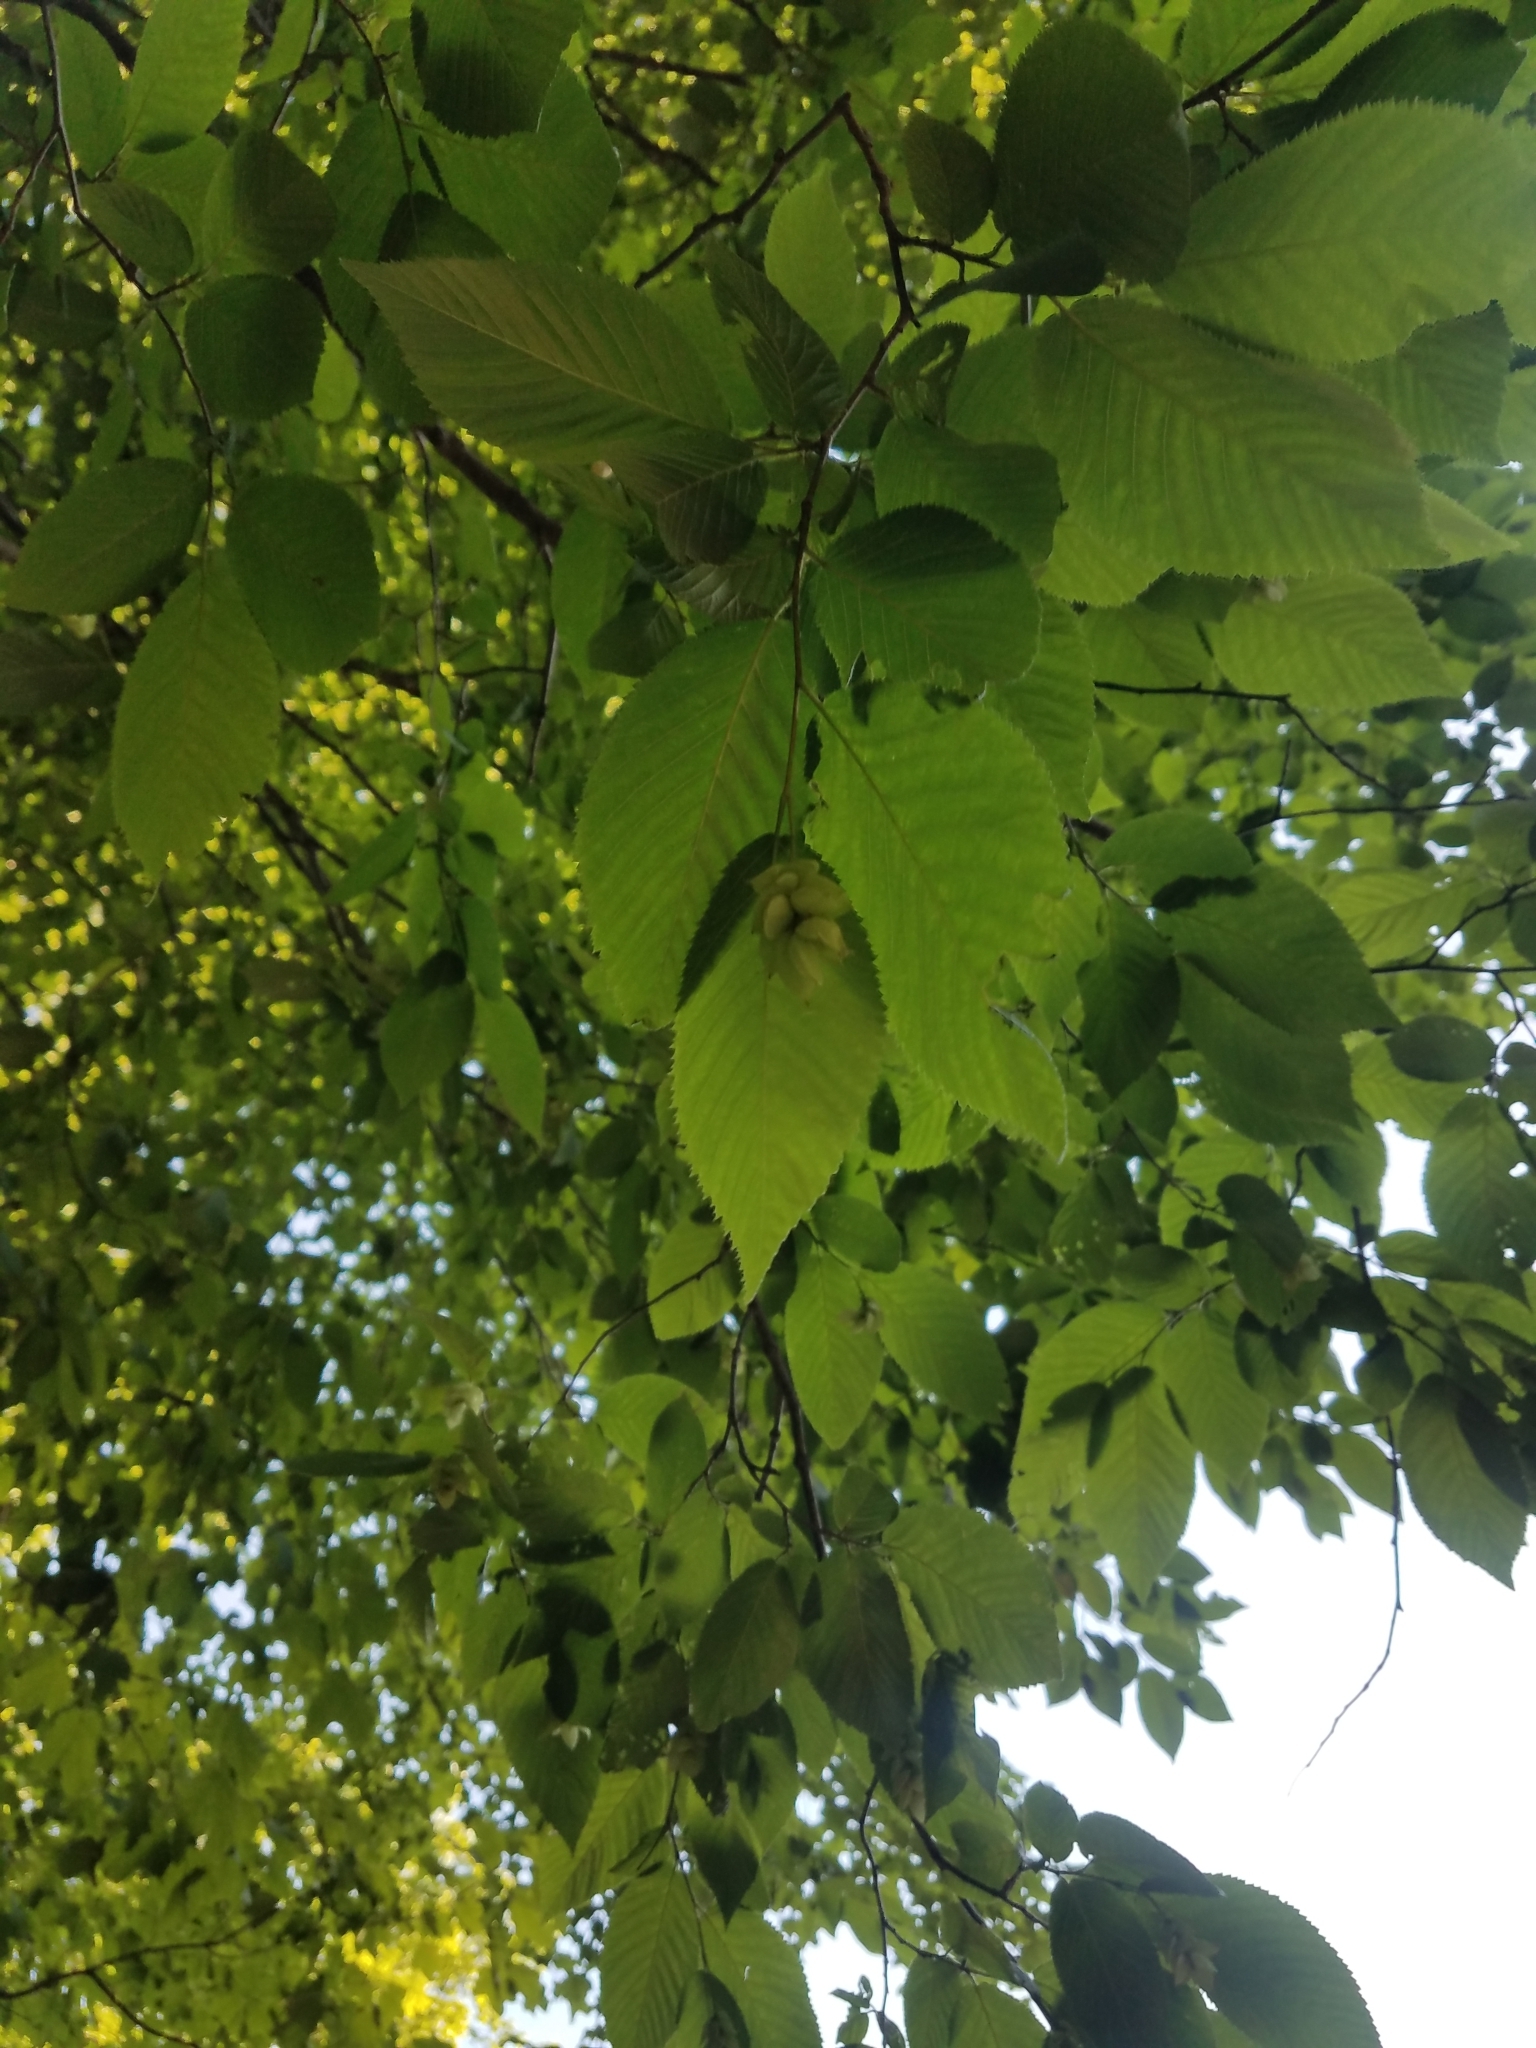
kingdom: Plantae
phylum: Tracheophyta
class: Magnoliopsida
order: Fagales
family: Betulaceae
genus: Ostrya
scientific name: Ostrya virginiana
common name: Ironwood
